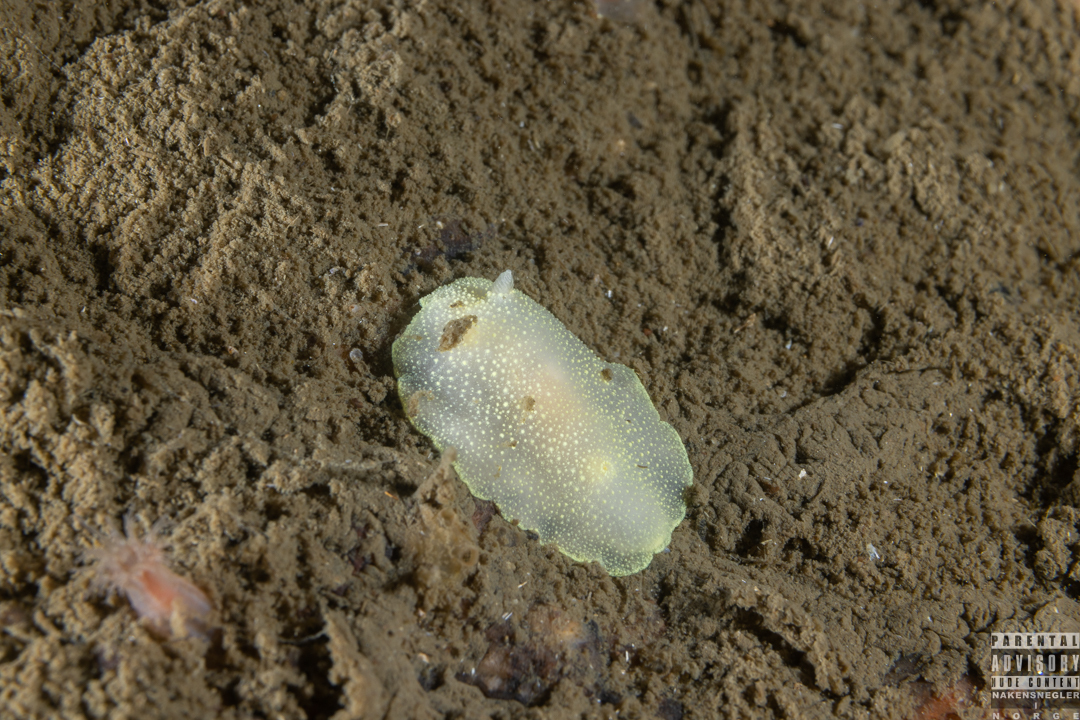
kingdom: Animalia
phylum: Mollusca
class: Gastropoda
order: Nudibranchia
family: Cadlinidae
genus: Cadlina
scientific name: Cadlina laevis
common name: White atlantic cadlina
